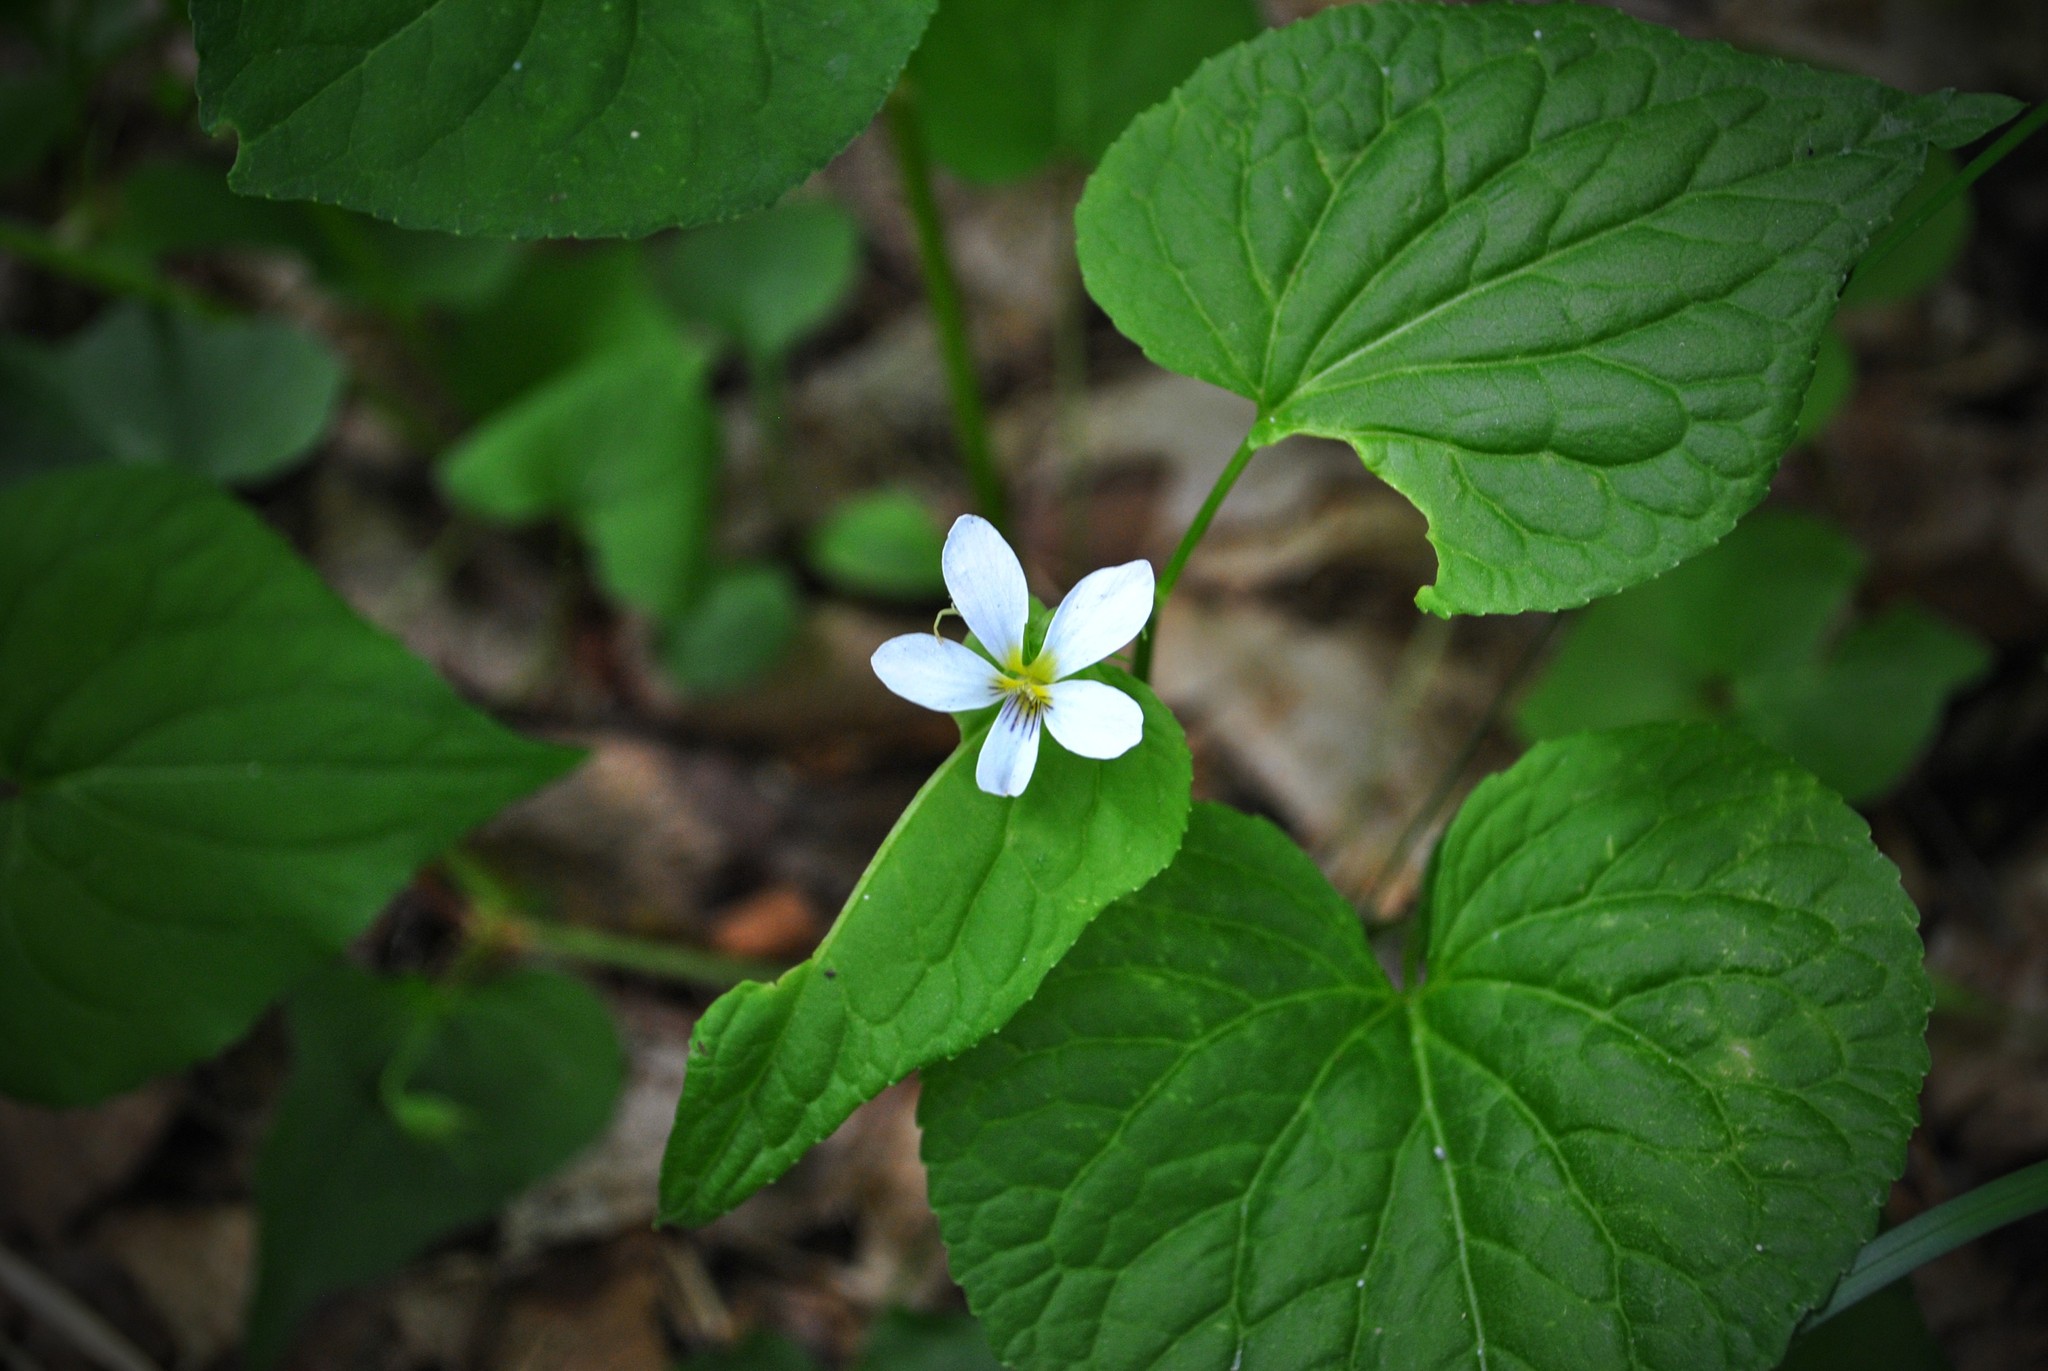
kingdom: Plantae
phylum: Tracheophyta
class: Magnoliopsida
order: Malpighiales
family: Violaceae
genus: Viola
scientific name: Viola canadensis
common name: Canada violet
